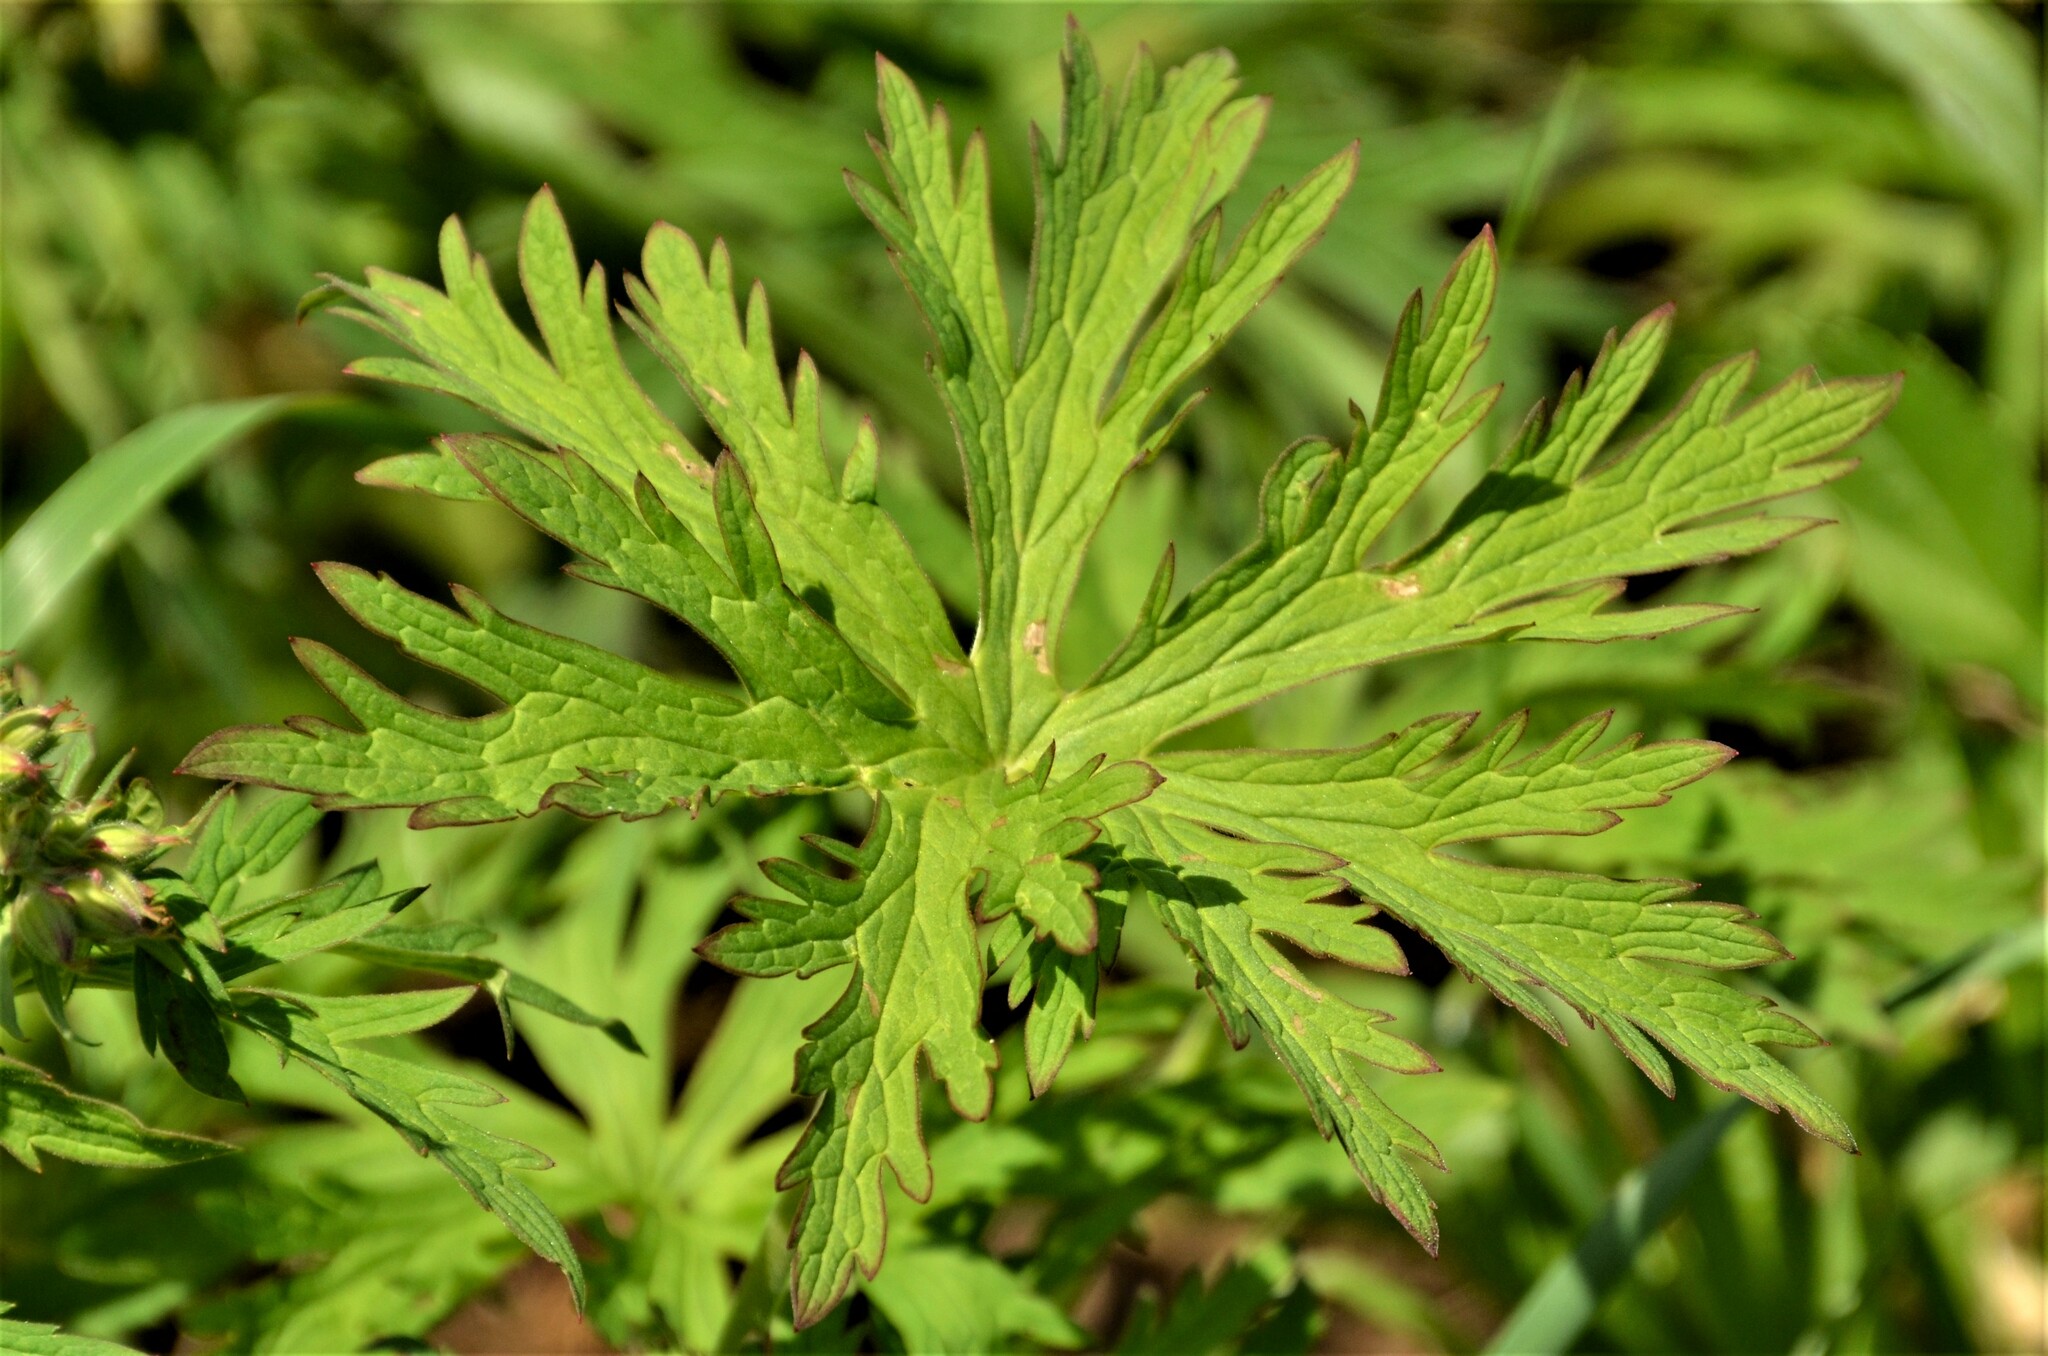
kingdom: Plantae
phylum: Tracheophyta
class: Magnoliopsida
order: Geraniales
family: Geraniaceae
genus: Geranium
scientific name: Geranium pratense
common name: Meadow crane's-bill
